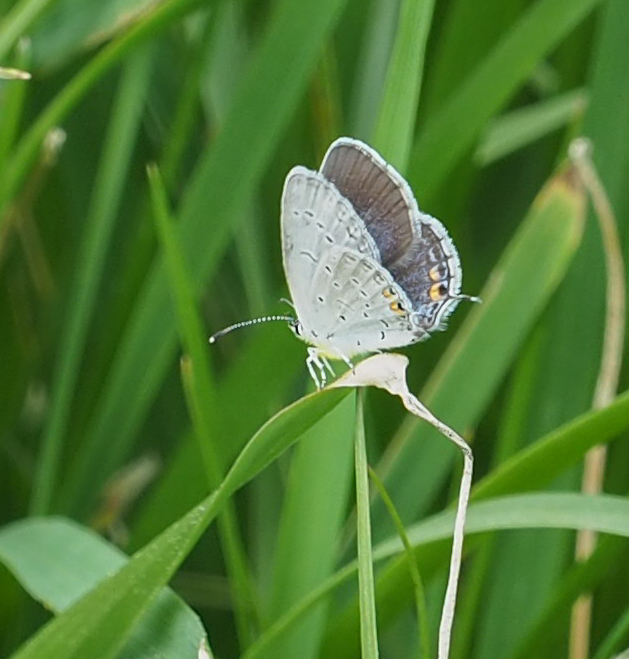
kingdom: Animalia
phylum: Arthropoda
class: Insecta
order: Lepidoptera
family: Lycaenidae
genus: Elkalyce
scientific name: Elkalyce comyntas
